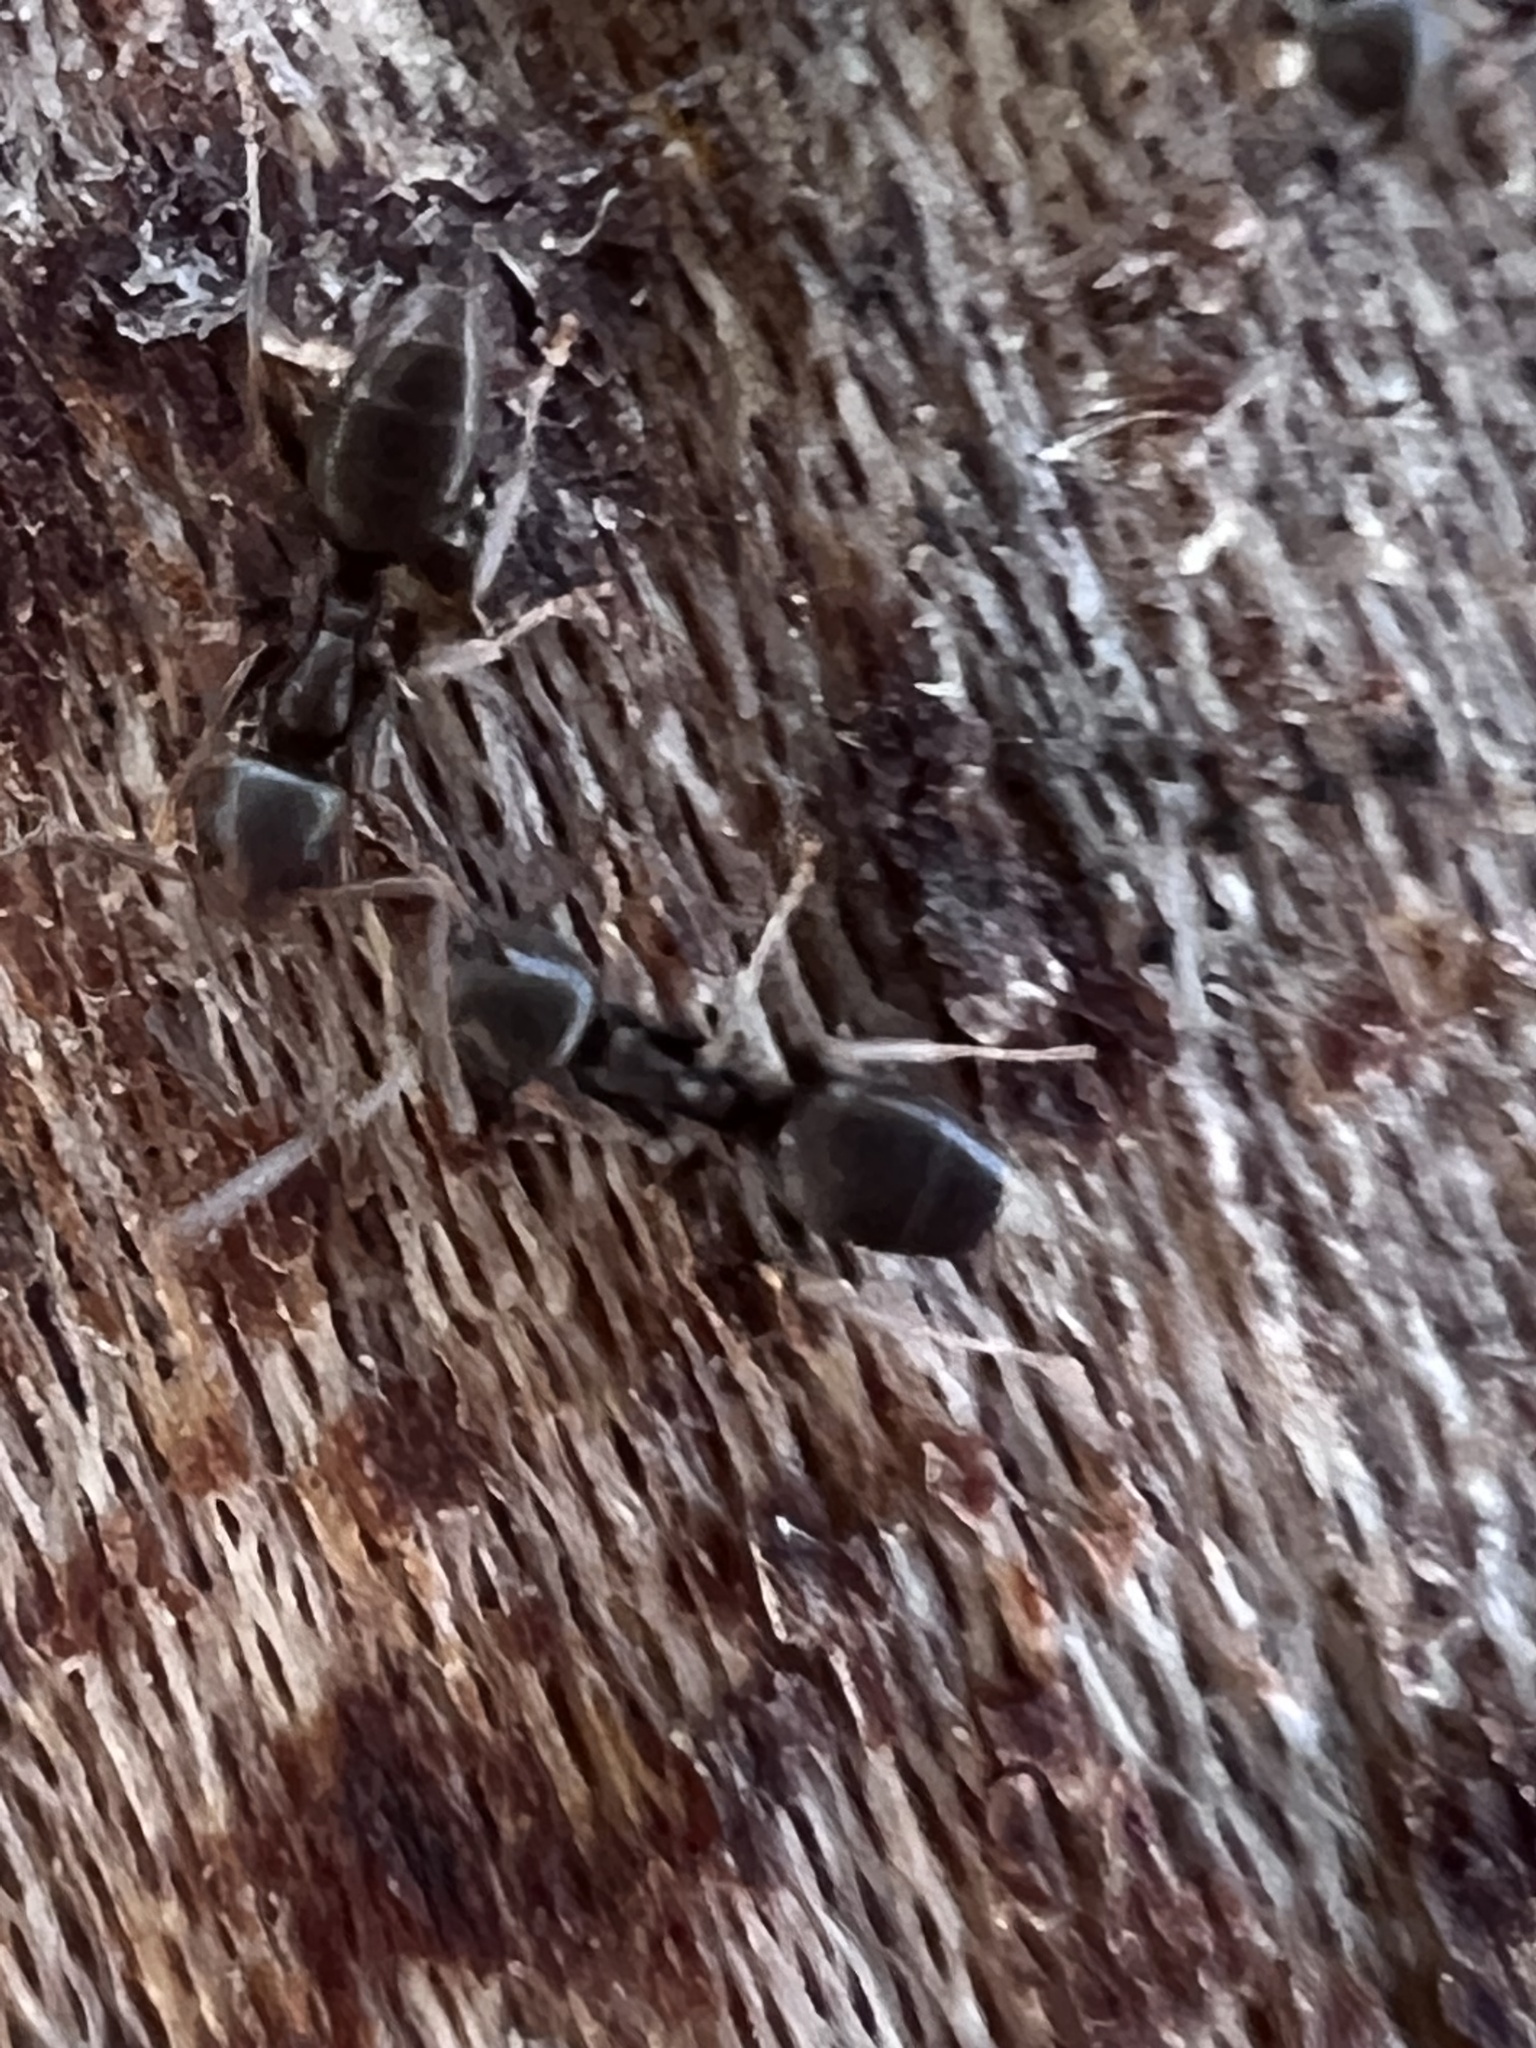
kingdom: Animalia
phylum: Arthropoda
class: Insecta
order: Hymenoptera
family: Formicidae
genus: Tapinoma
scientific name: Tapinoma sessile
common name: Odorous house ant
